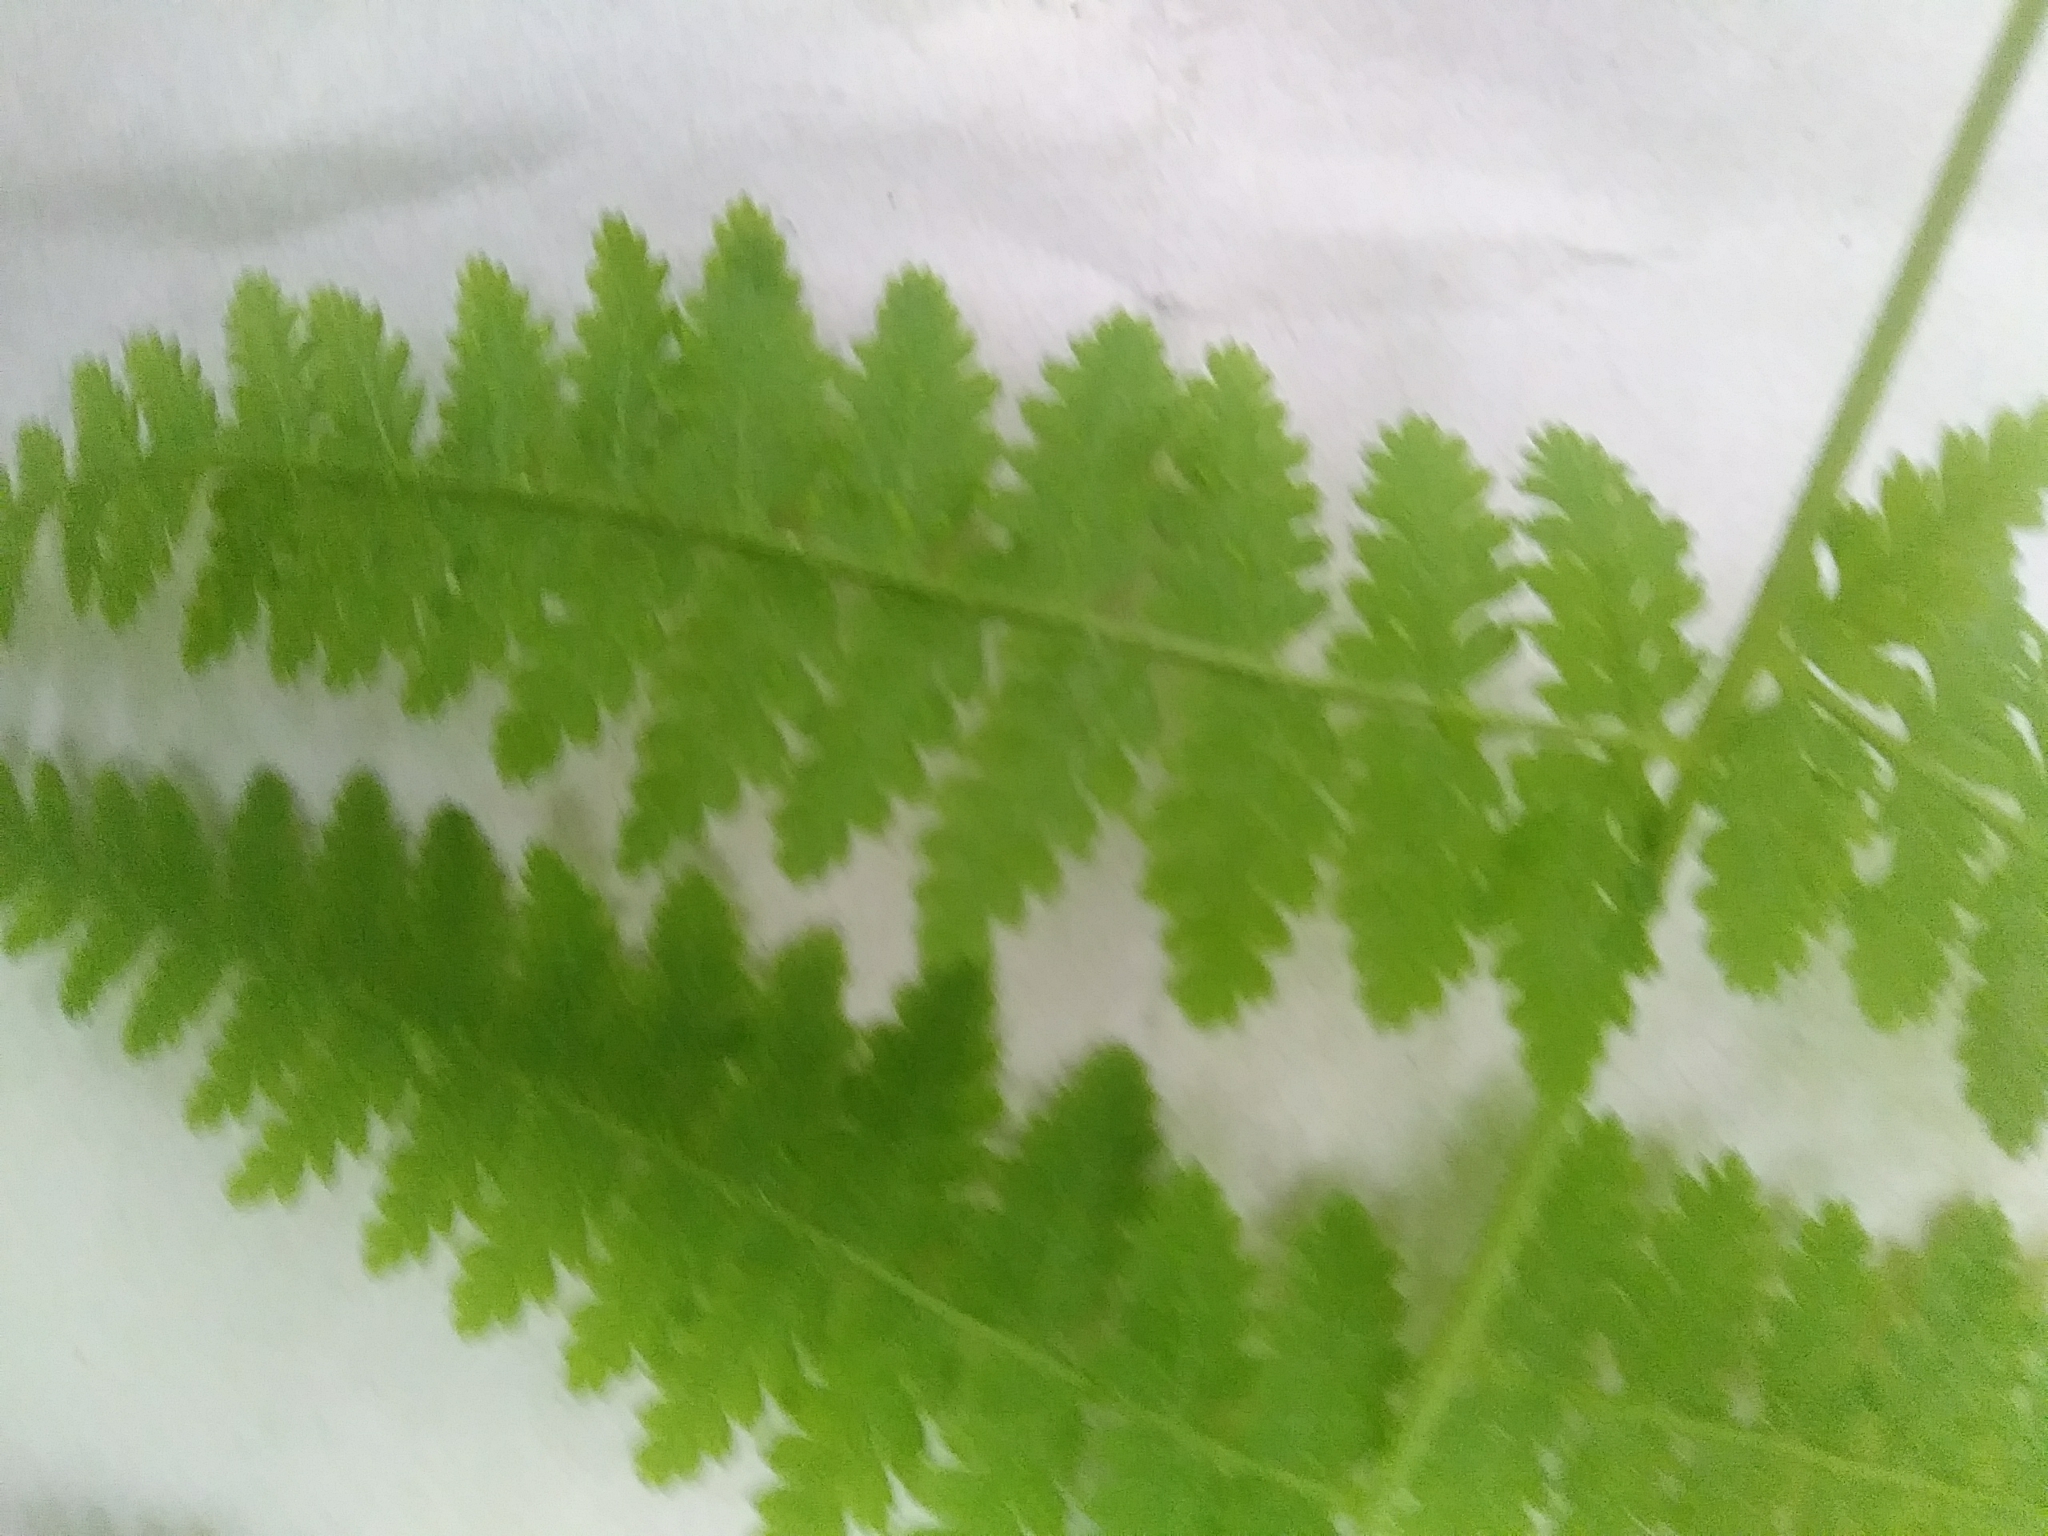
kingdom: Plantae
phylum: Tracheophyta
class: Polypodiopsida
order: Polypodiales
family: Dennstaedtiaceae
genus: Sitobolium
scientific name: Sitobolium punctilobum
